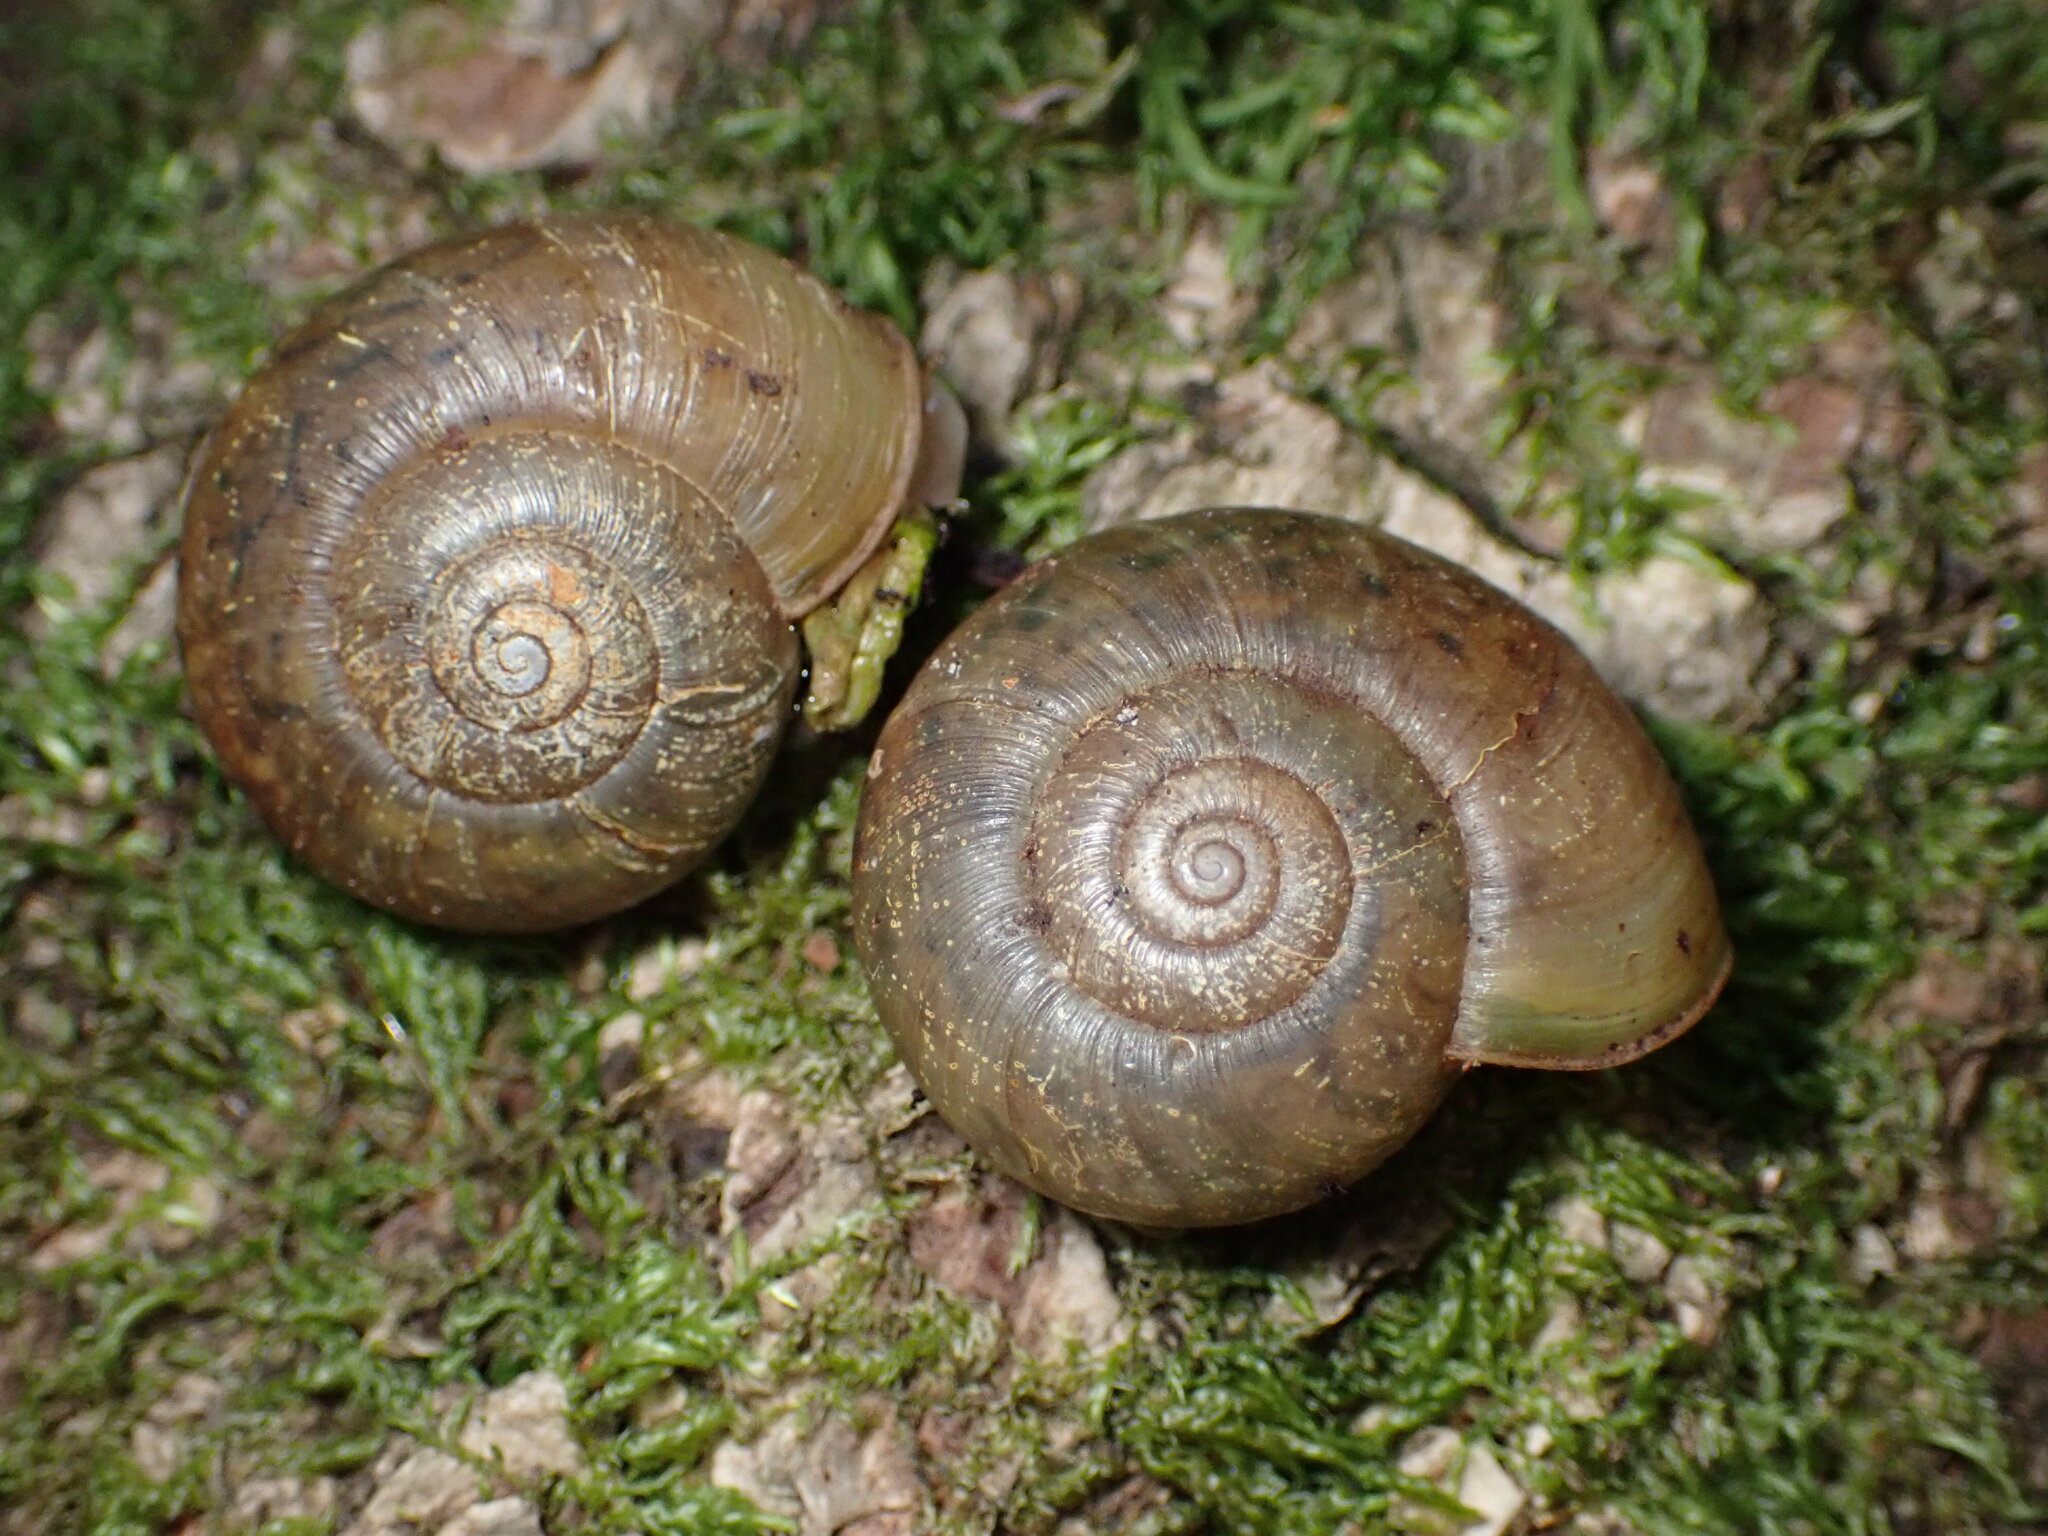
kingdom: Animalia
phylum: Mollusca
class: Gastropoda
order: Stylommatophora
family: Haplotrematidae
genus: Haplotrema
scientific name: Haplotrema minimum
